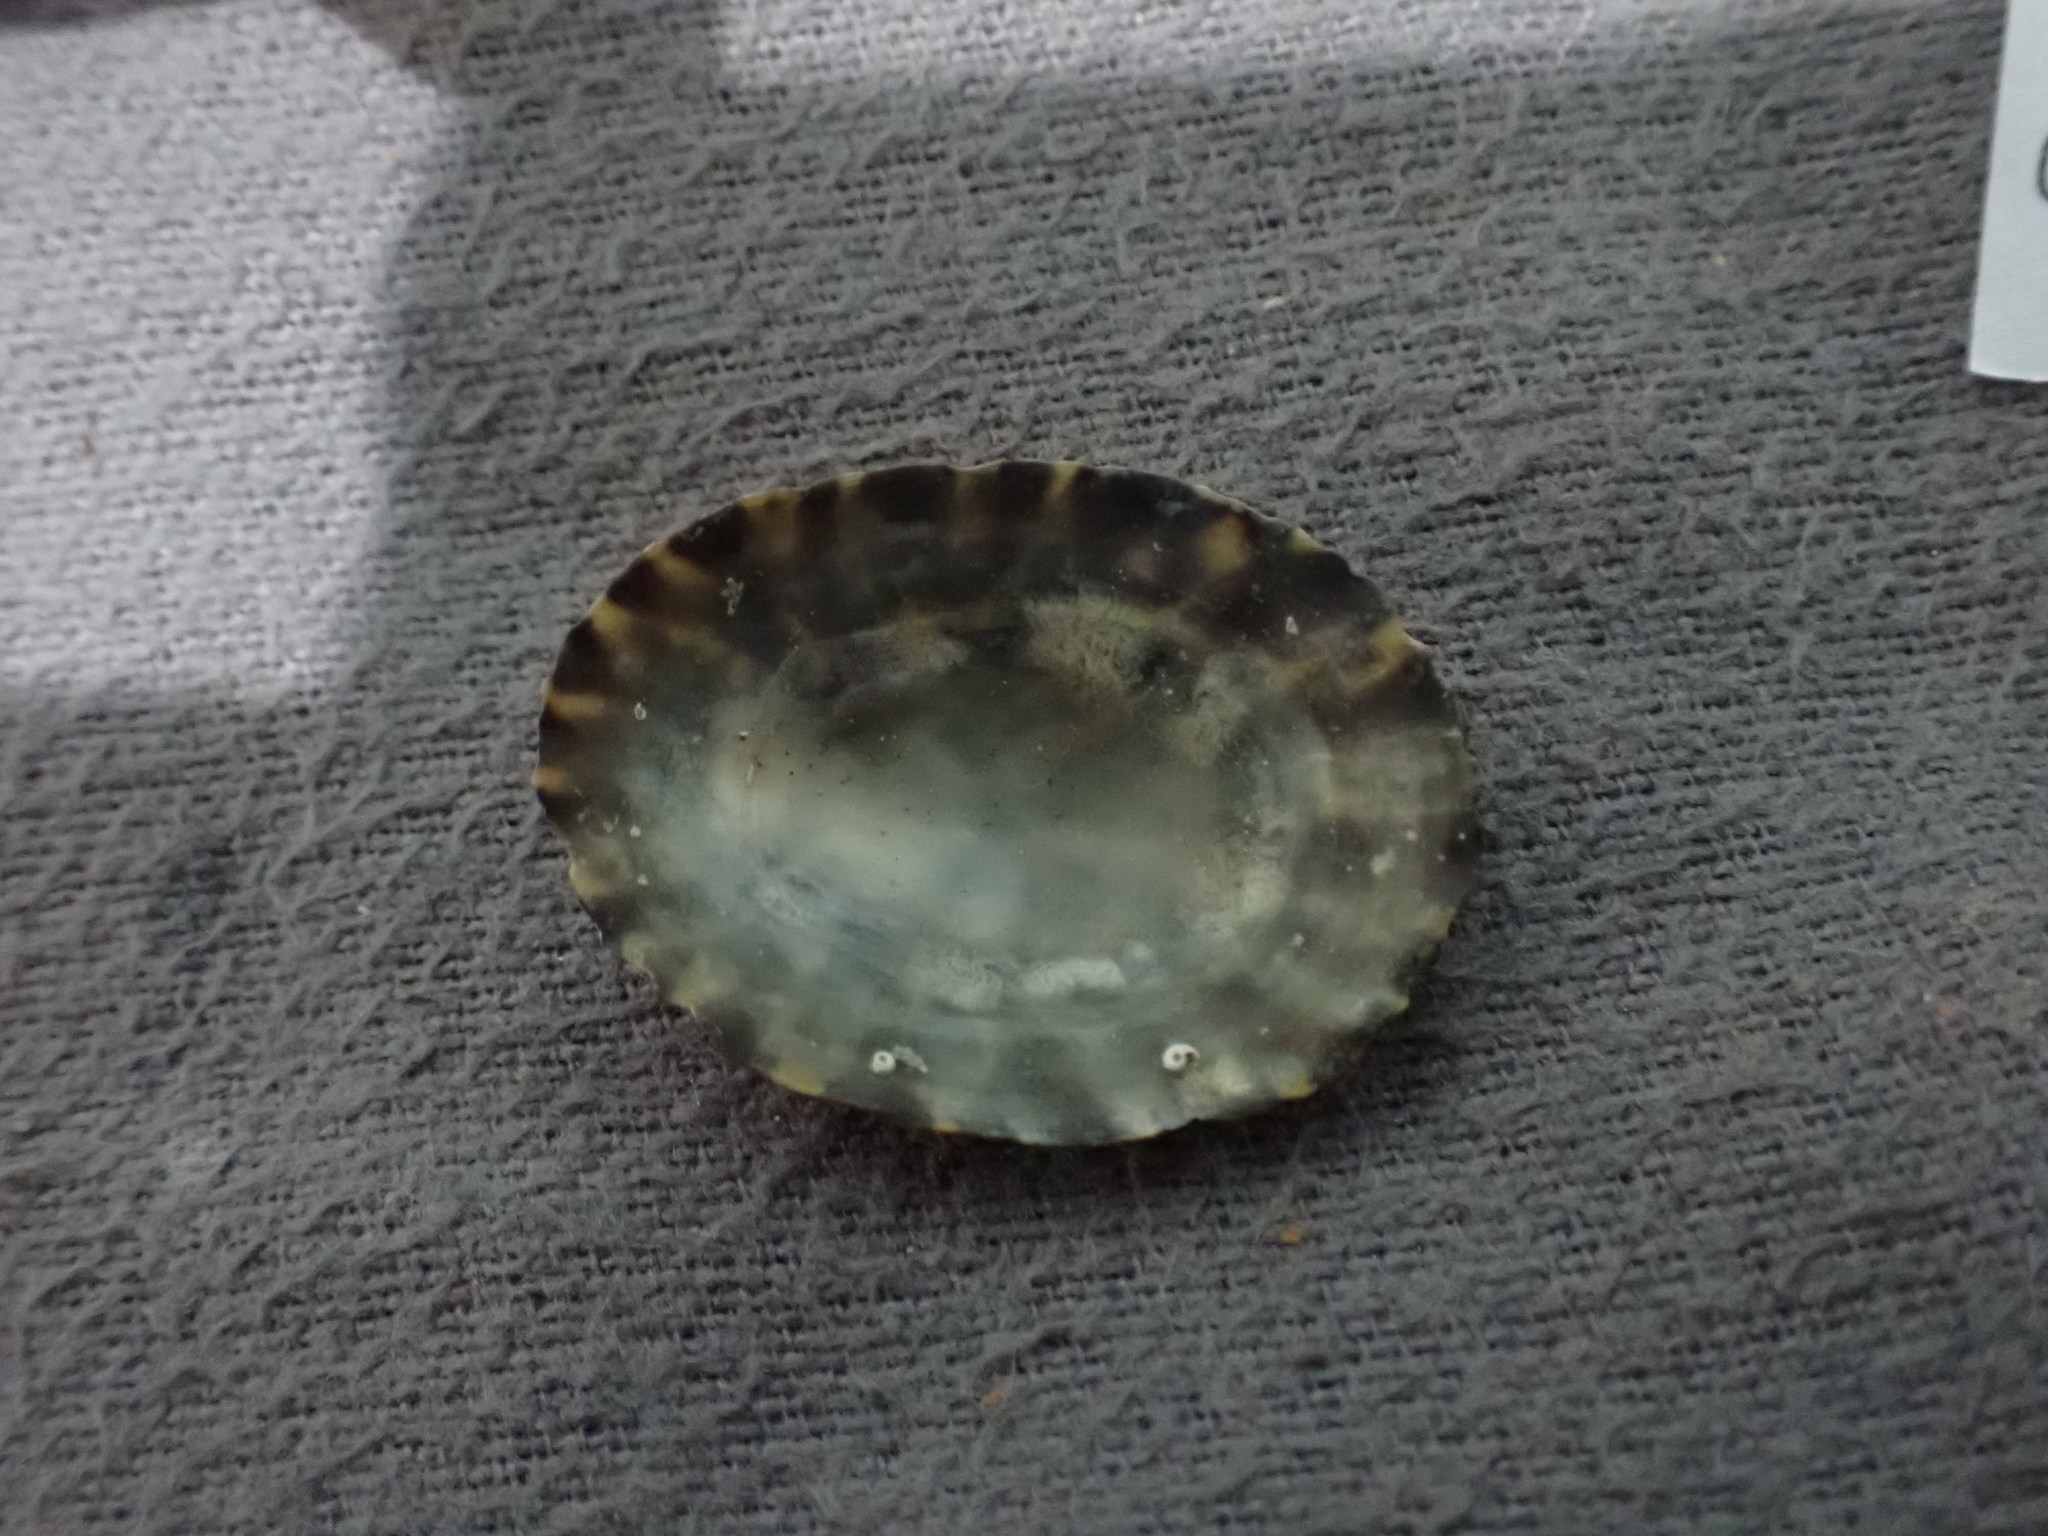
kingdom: Animalia
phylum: Mollusca
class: Gastropoda
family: Nacellidae
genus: Cellana
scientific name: Cellana strigilis
